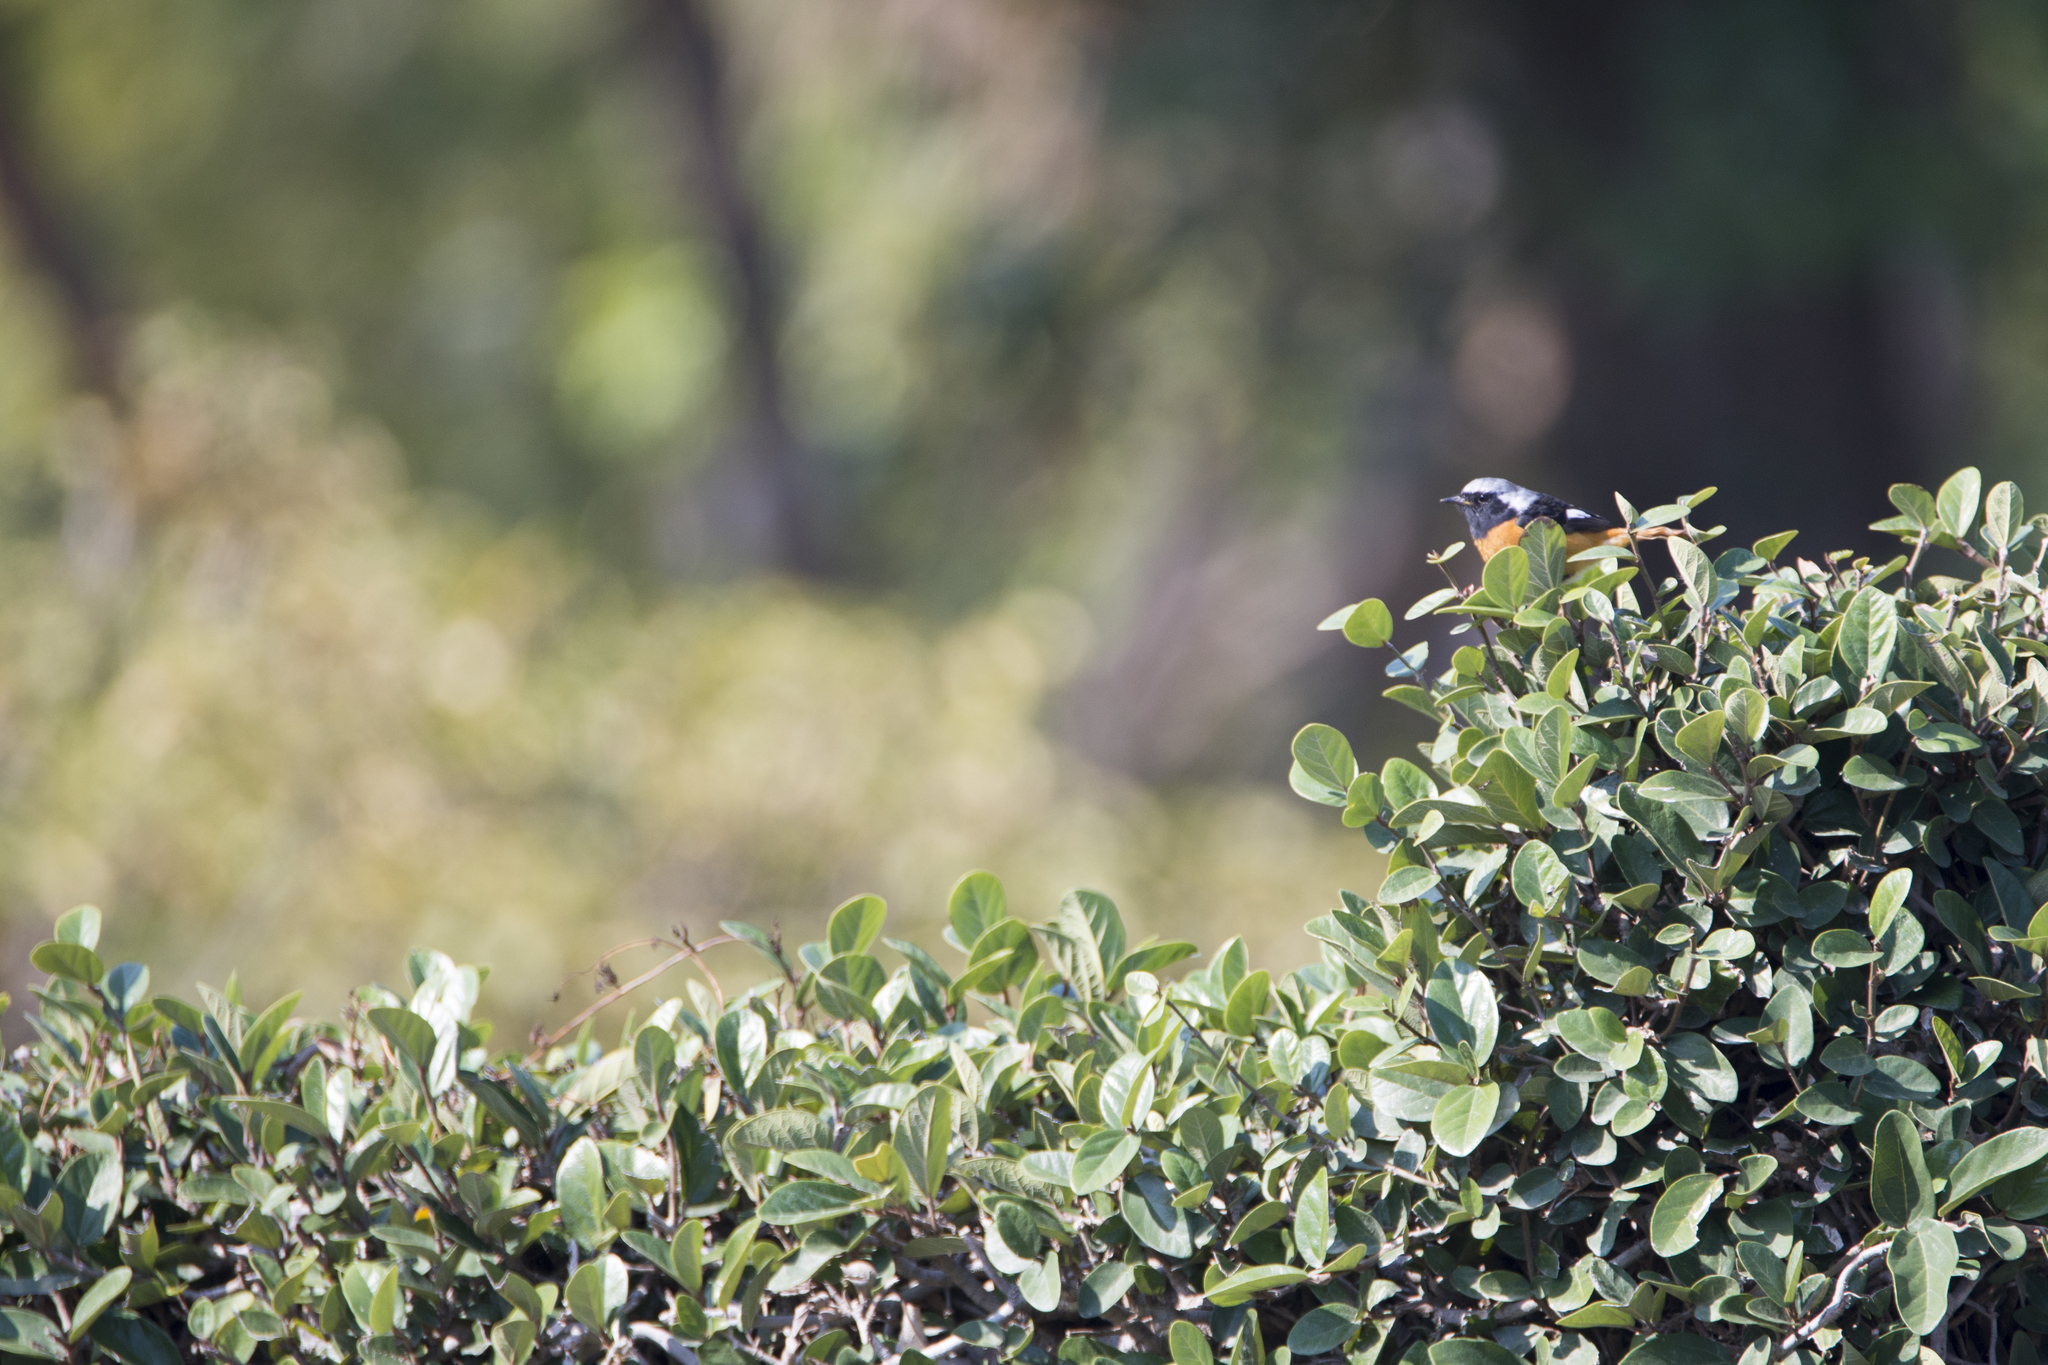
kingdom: Animalia
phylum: Chordata
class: Aves
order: Passeriformes
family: Muscicapidae
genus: Phoenicurus
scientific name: Phoenicurus auroreus
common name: Daurian redstart
